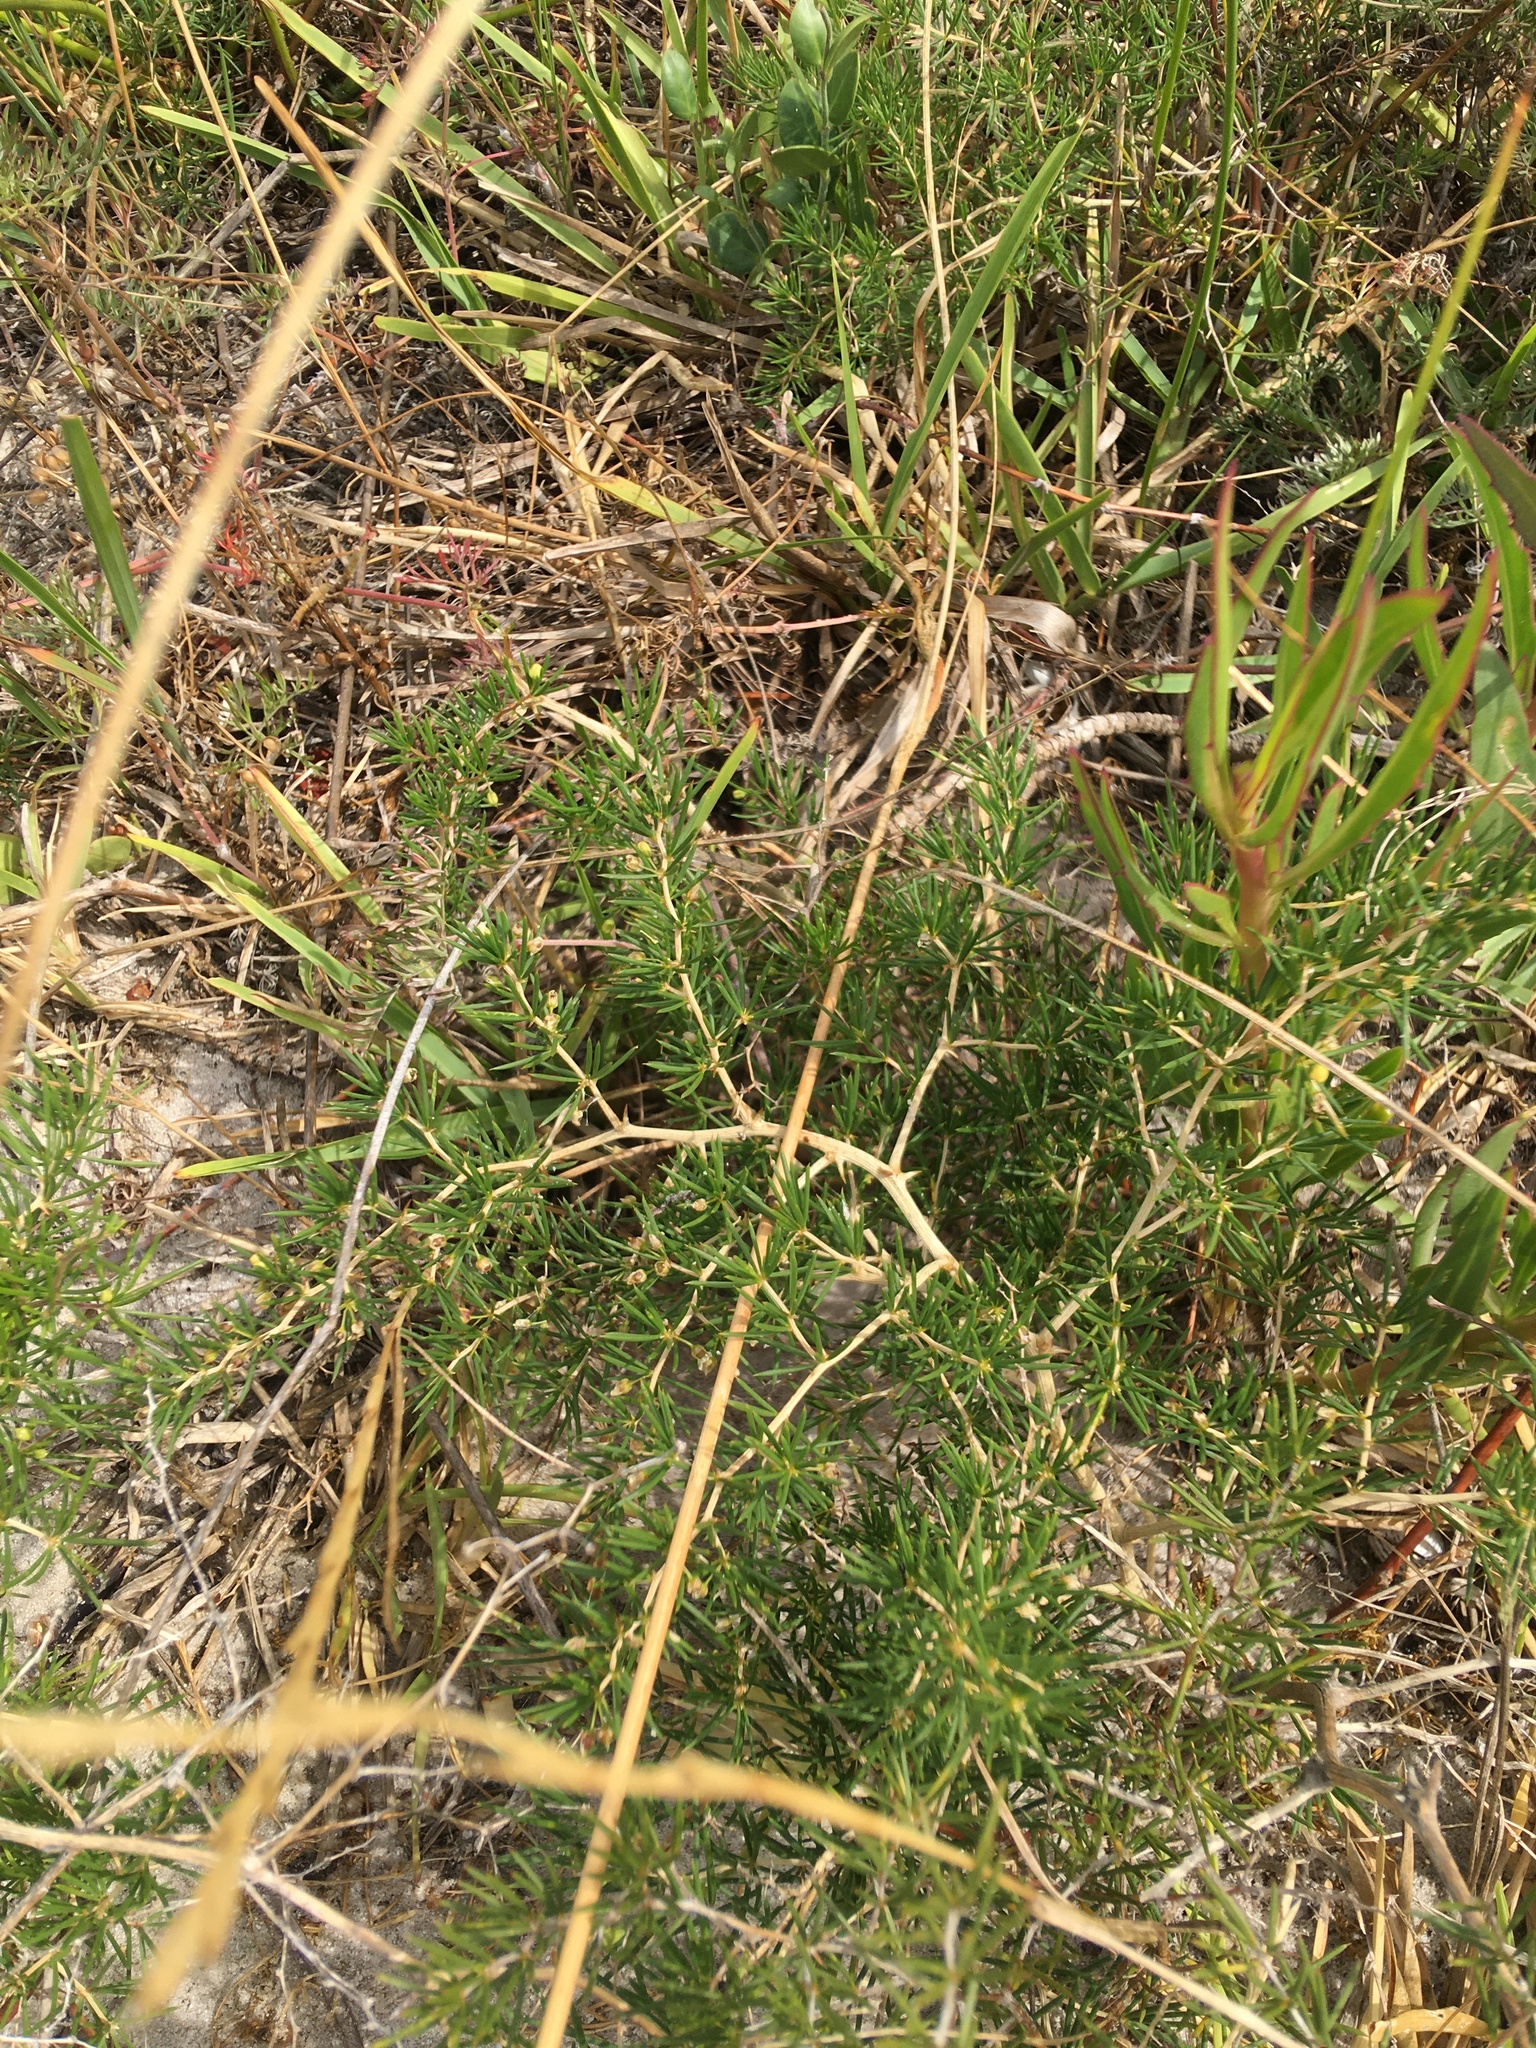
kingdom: Plantae
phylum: Tracheophyta
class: Liliopsida
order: Asparagales
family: Asparagaceae
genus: Asparagus
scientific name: Asparagus lignosus
